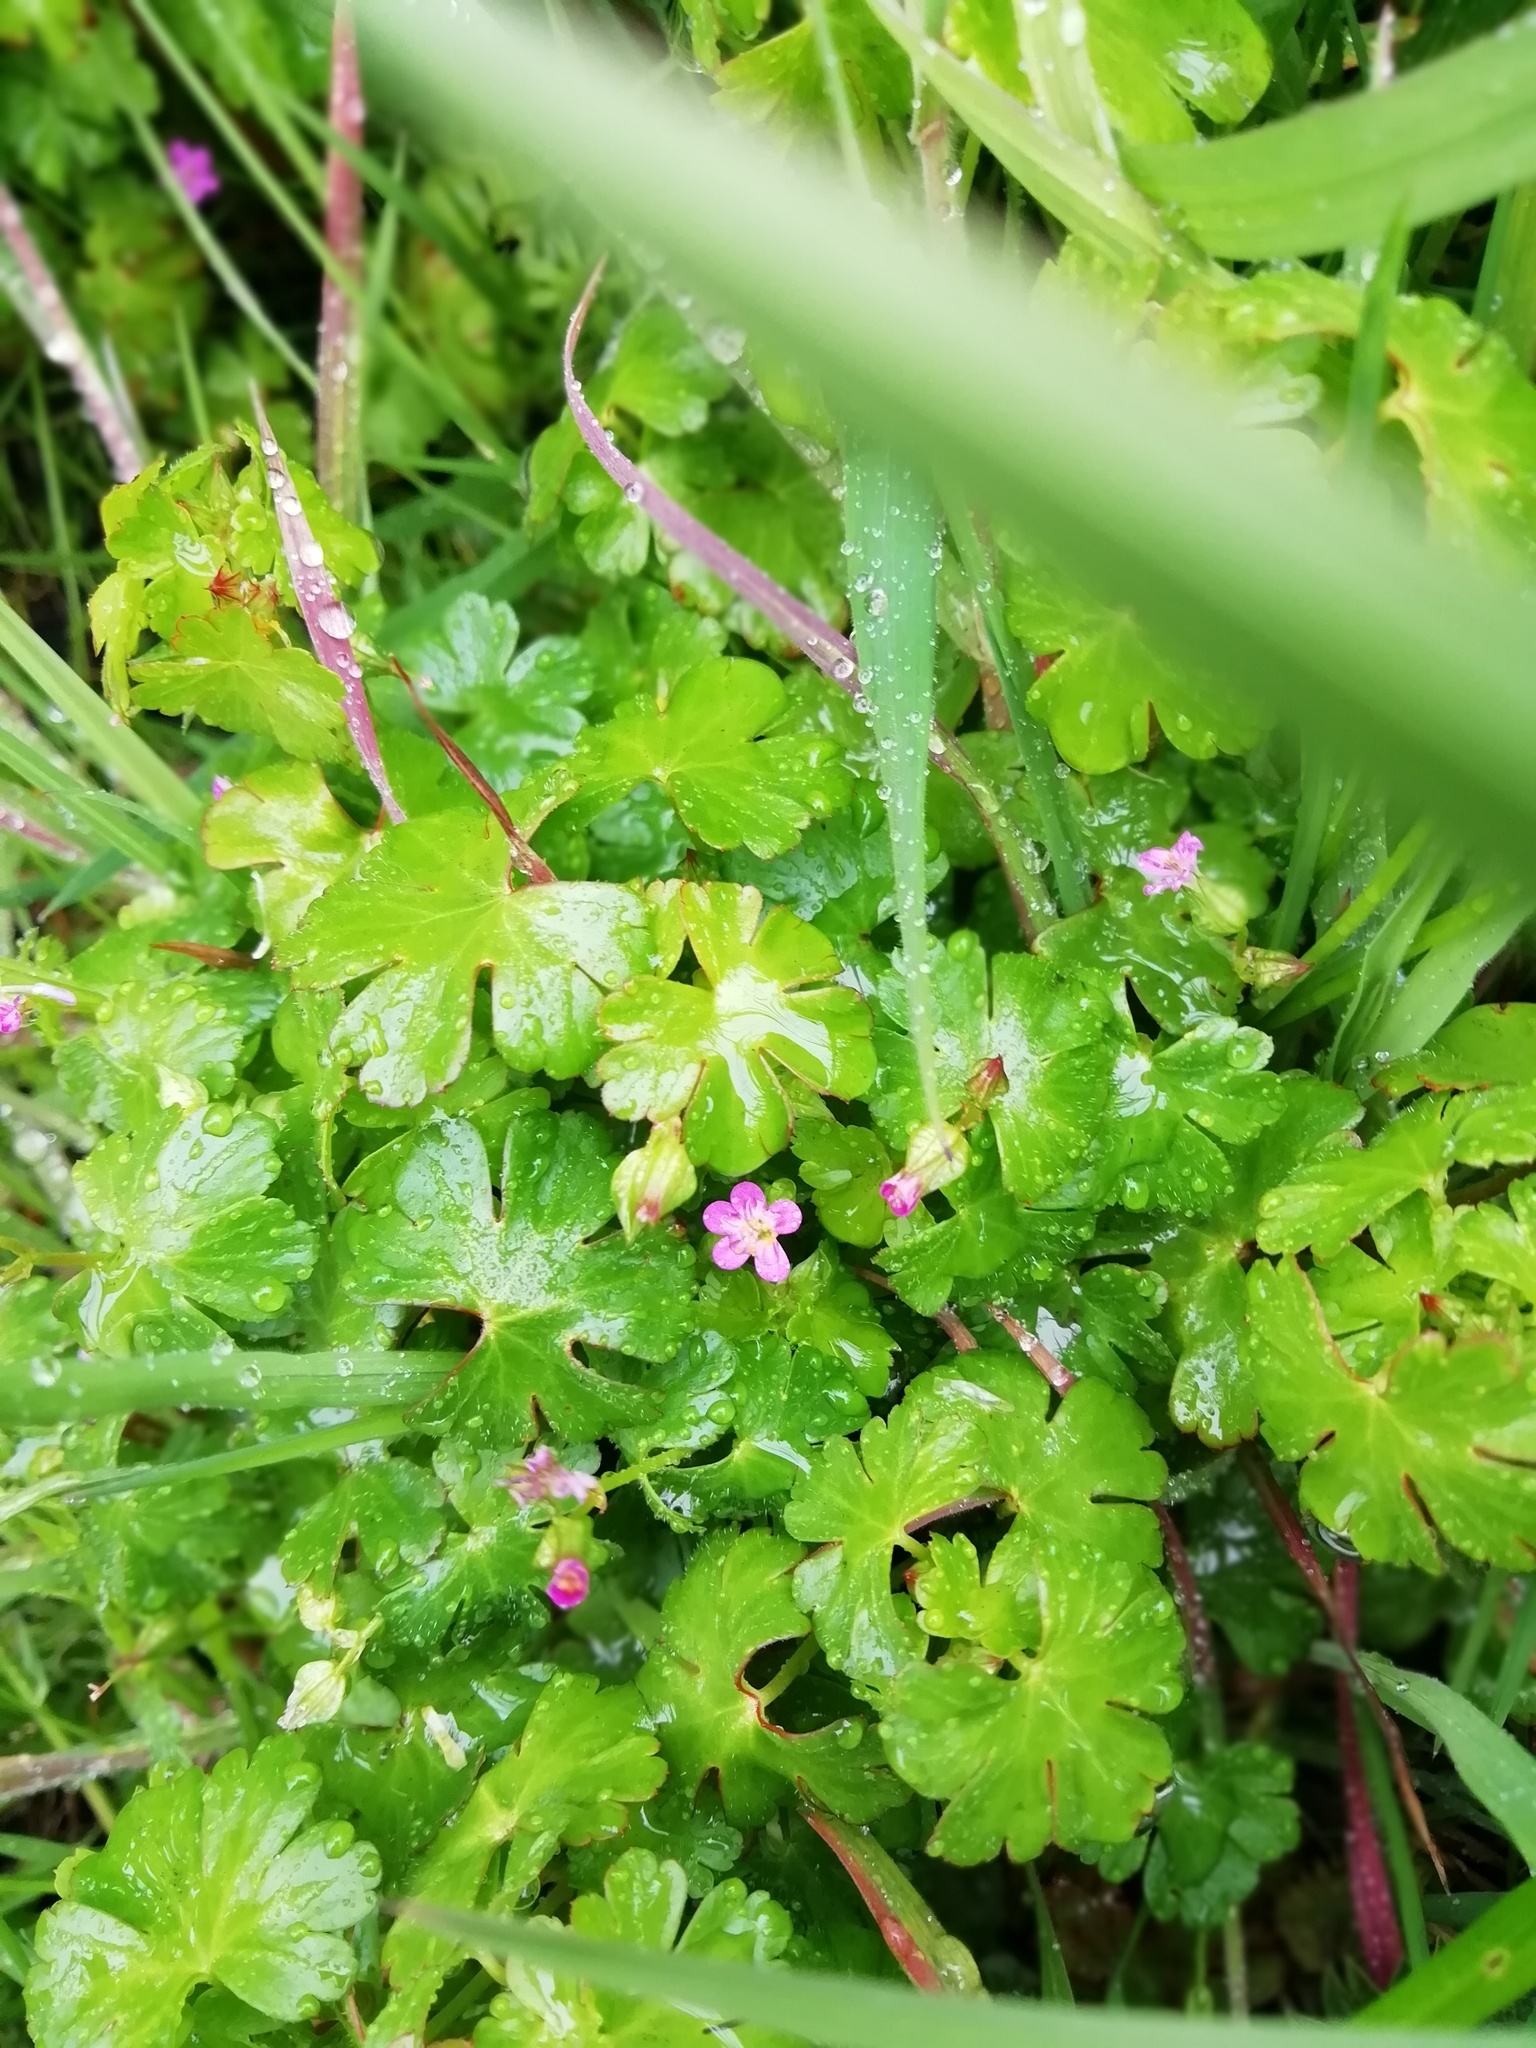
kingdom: Plantae
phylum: Tracheophyta
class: Magnoliopsida
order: Geraniales
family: Geraniaceae
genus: Geranium
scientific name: Geranium lucidum
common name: Shining crane's-bill
